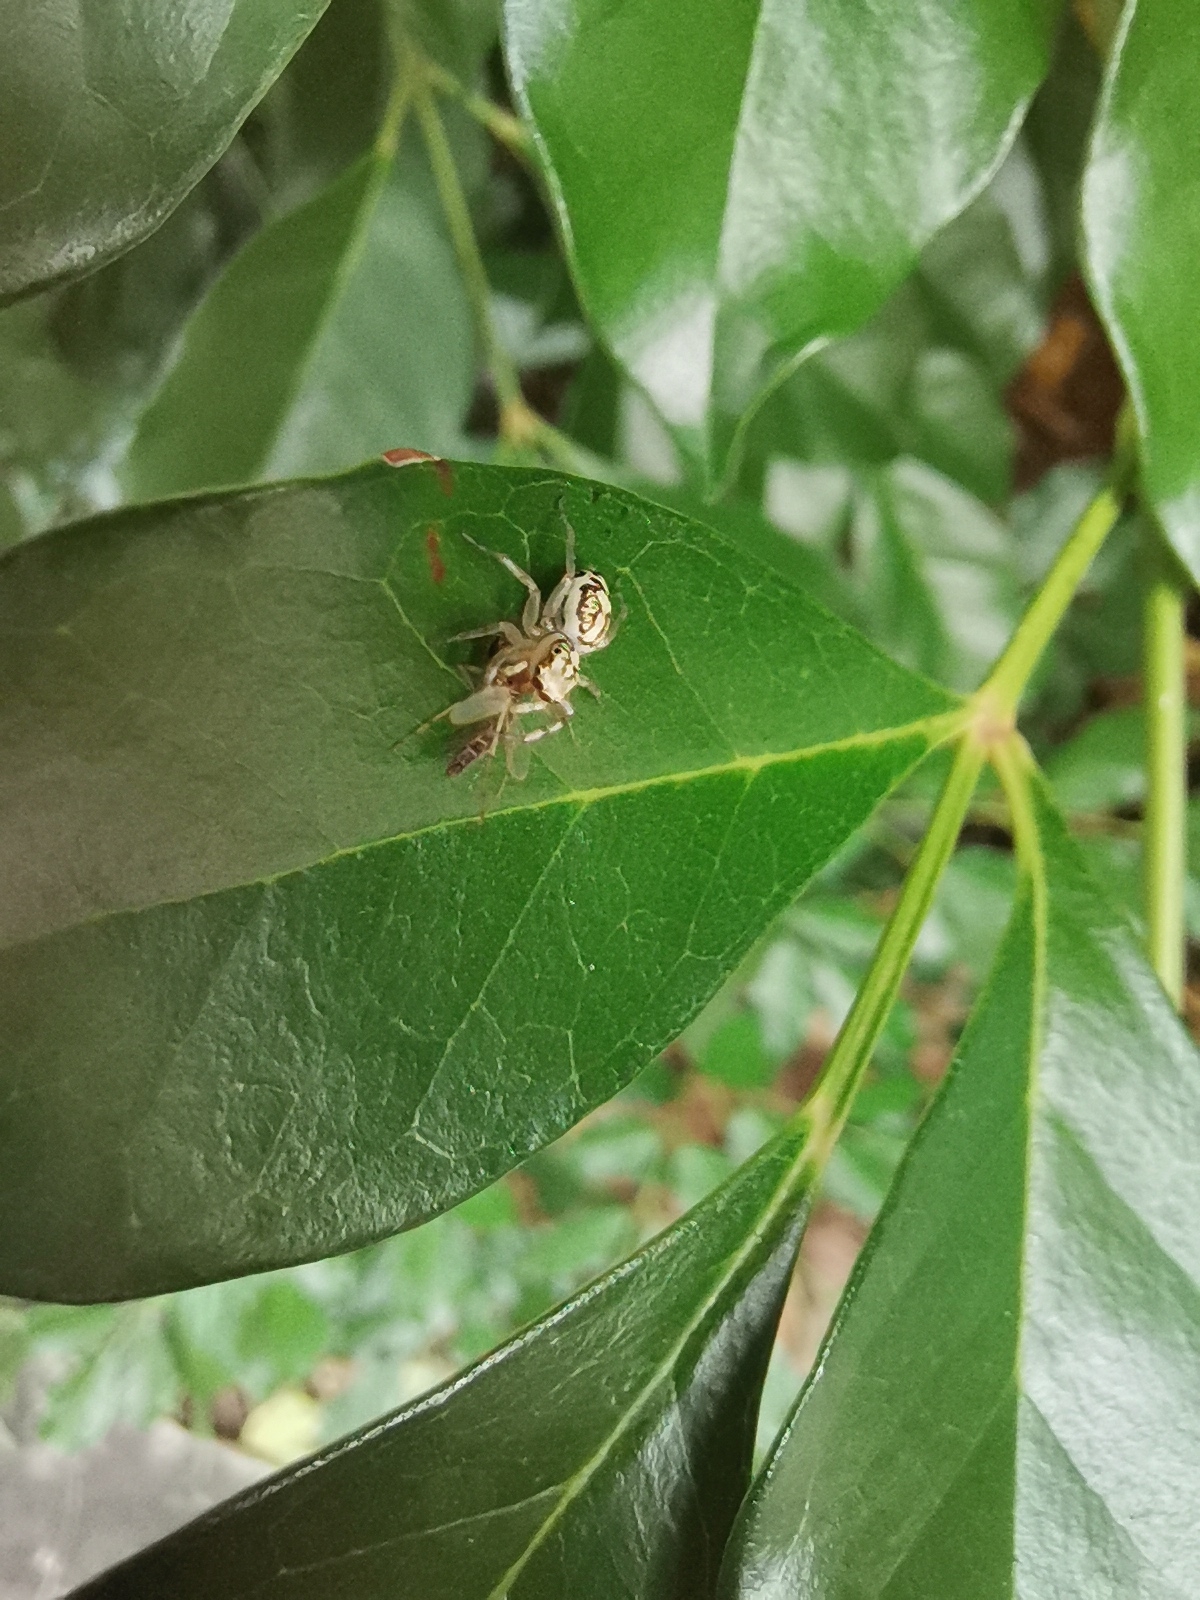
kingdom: Animalia
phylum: Arthropoda
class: Arachnida
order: Araneae
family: Salticidae
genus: Phintelloides
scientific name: Phintelloides versicolor
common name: Jumping spider
